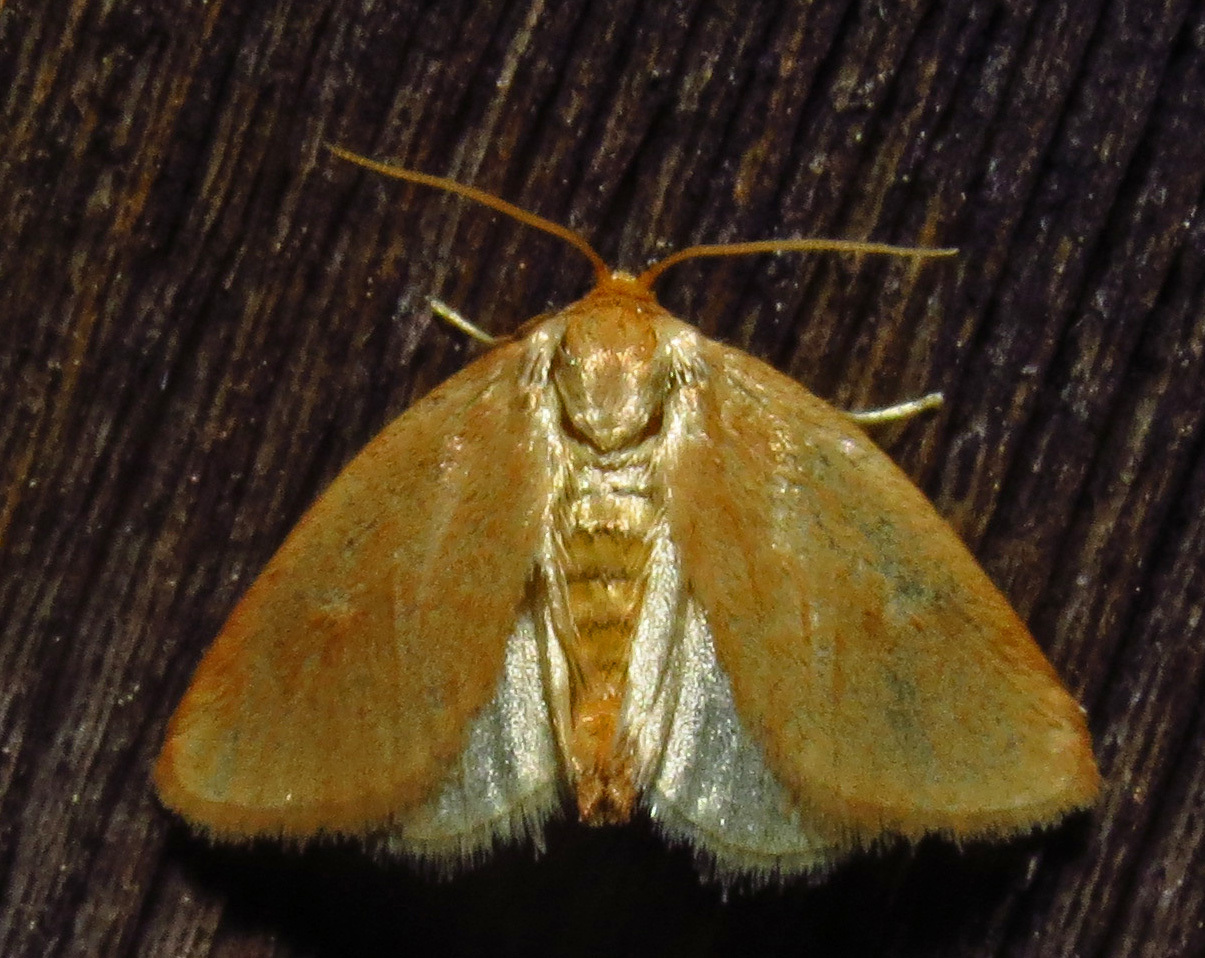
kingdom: Animalia
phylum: Arthropoda
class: Insecta
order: Lepidoptera
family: Limacodidae
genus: Tortricidia
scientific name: Tortricidia testacea
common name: Early button slug moth
